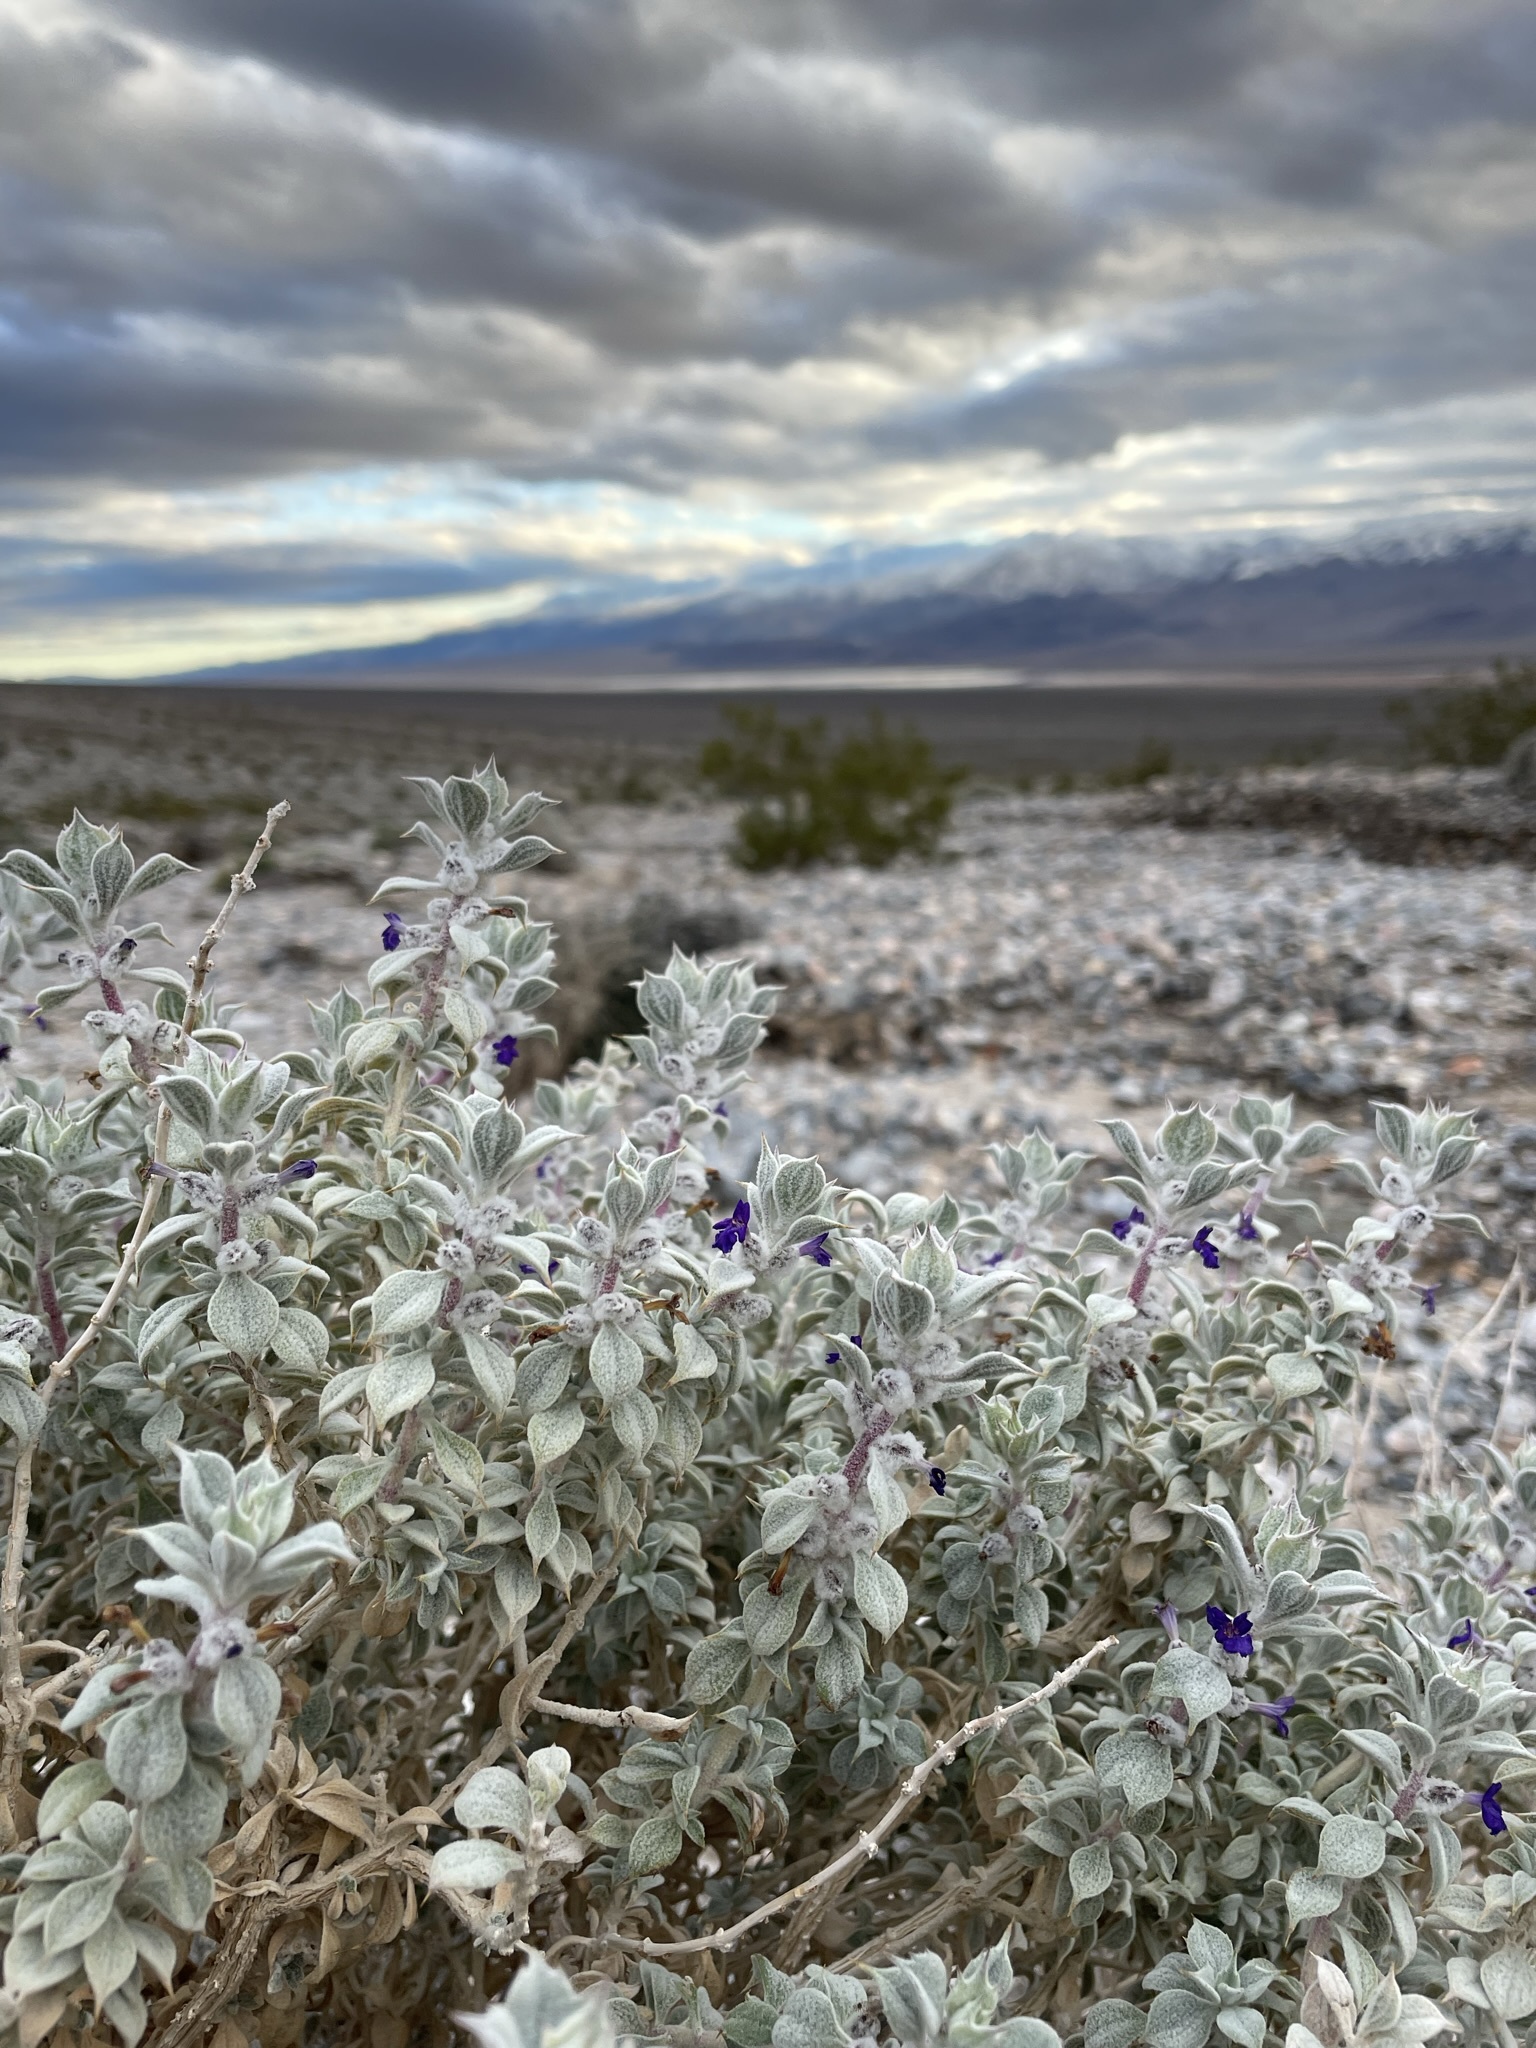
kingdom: Plantae
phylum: Tracheophyta
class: Magnoliopsida
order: Lamiales
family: Lamiaceae
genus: Salvia
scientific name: Salvia funerea
